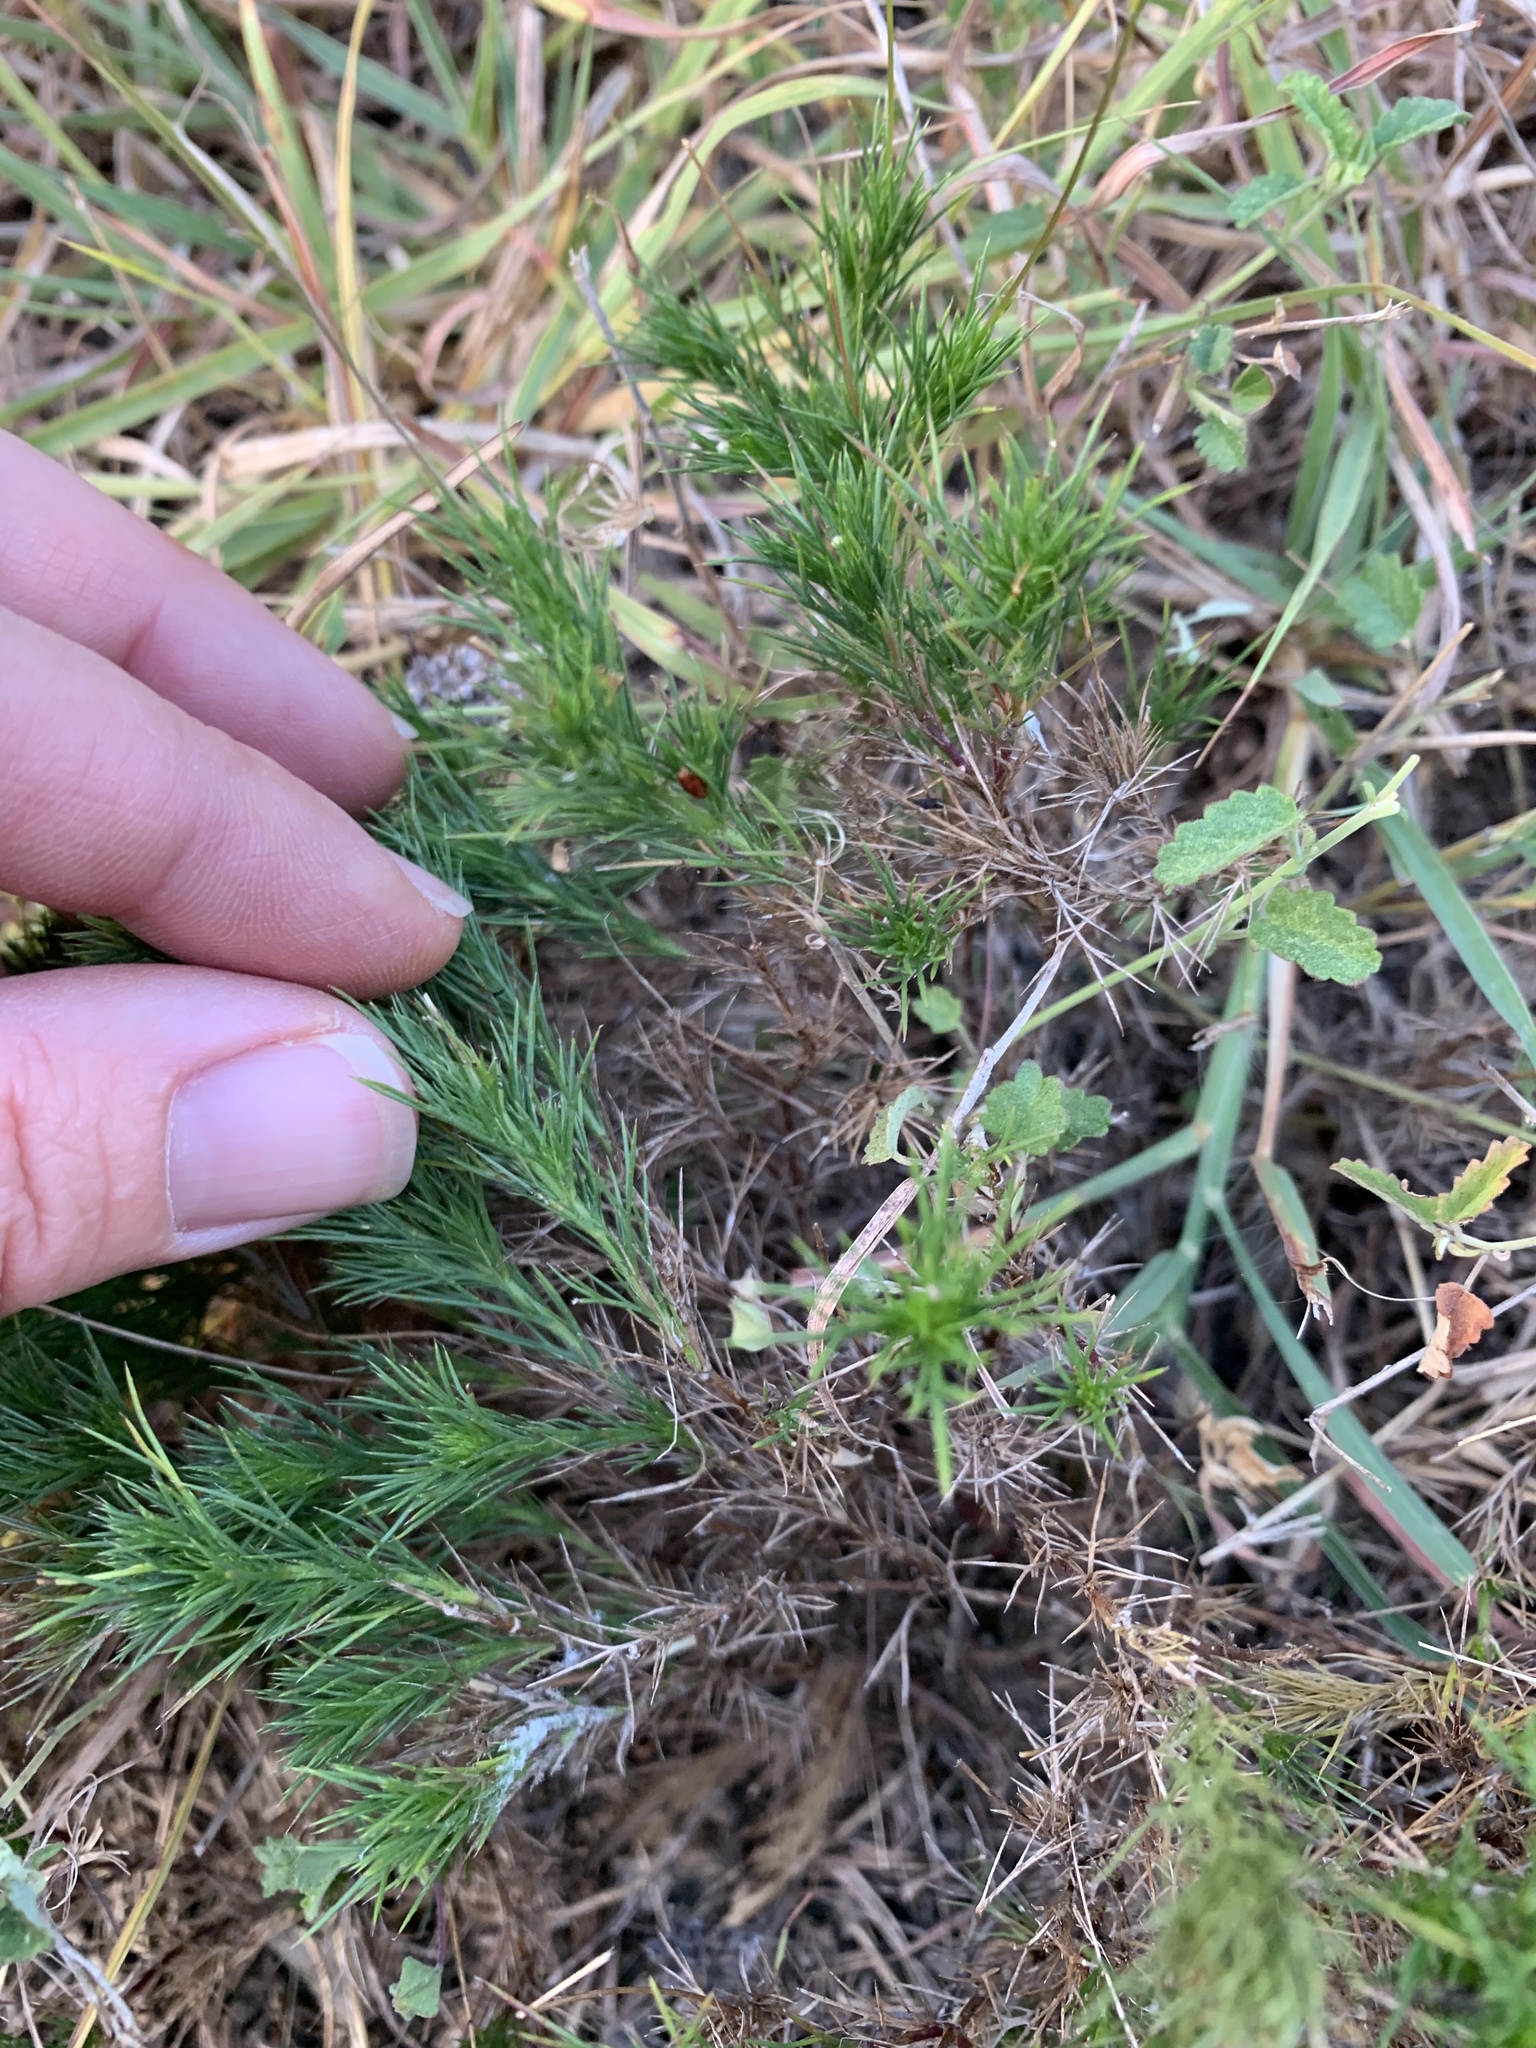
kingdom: Plantae
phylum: Tracheophyta
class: Magnoliopsida
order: Asterales
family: Asteraceae
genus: Thymophylla
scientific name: Thymophylla pentachaeta
